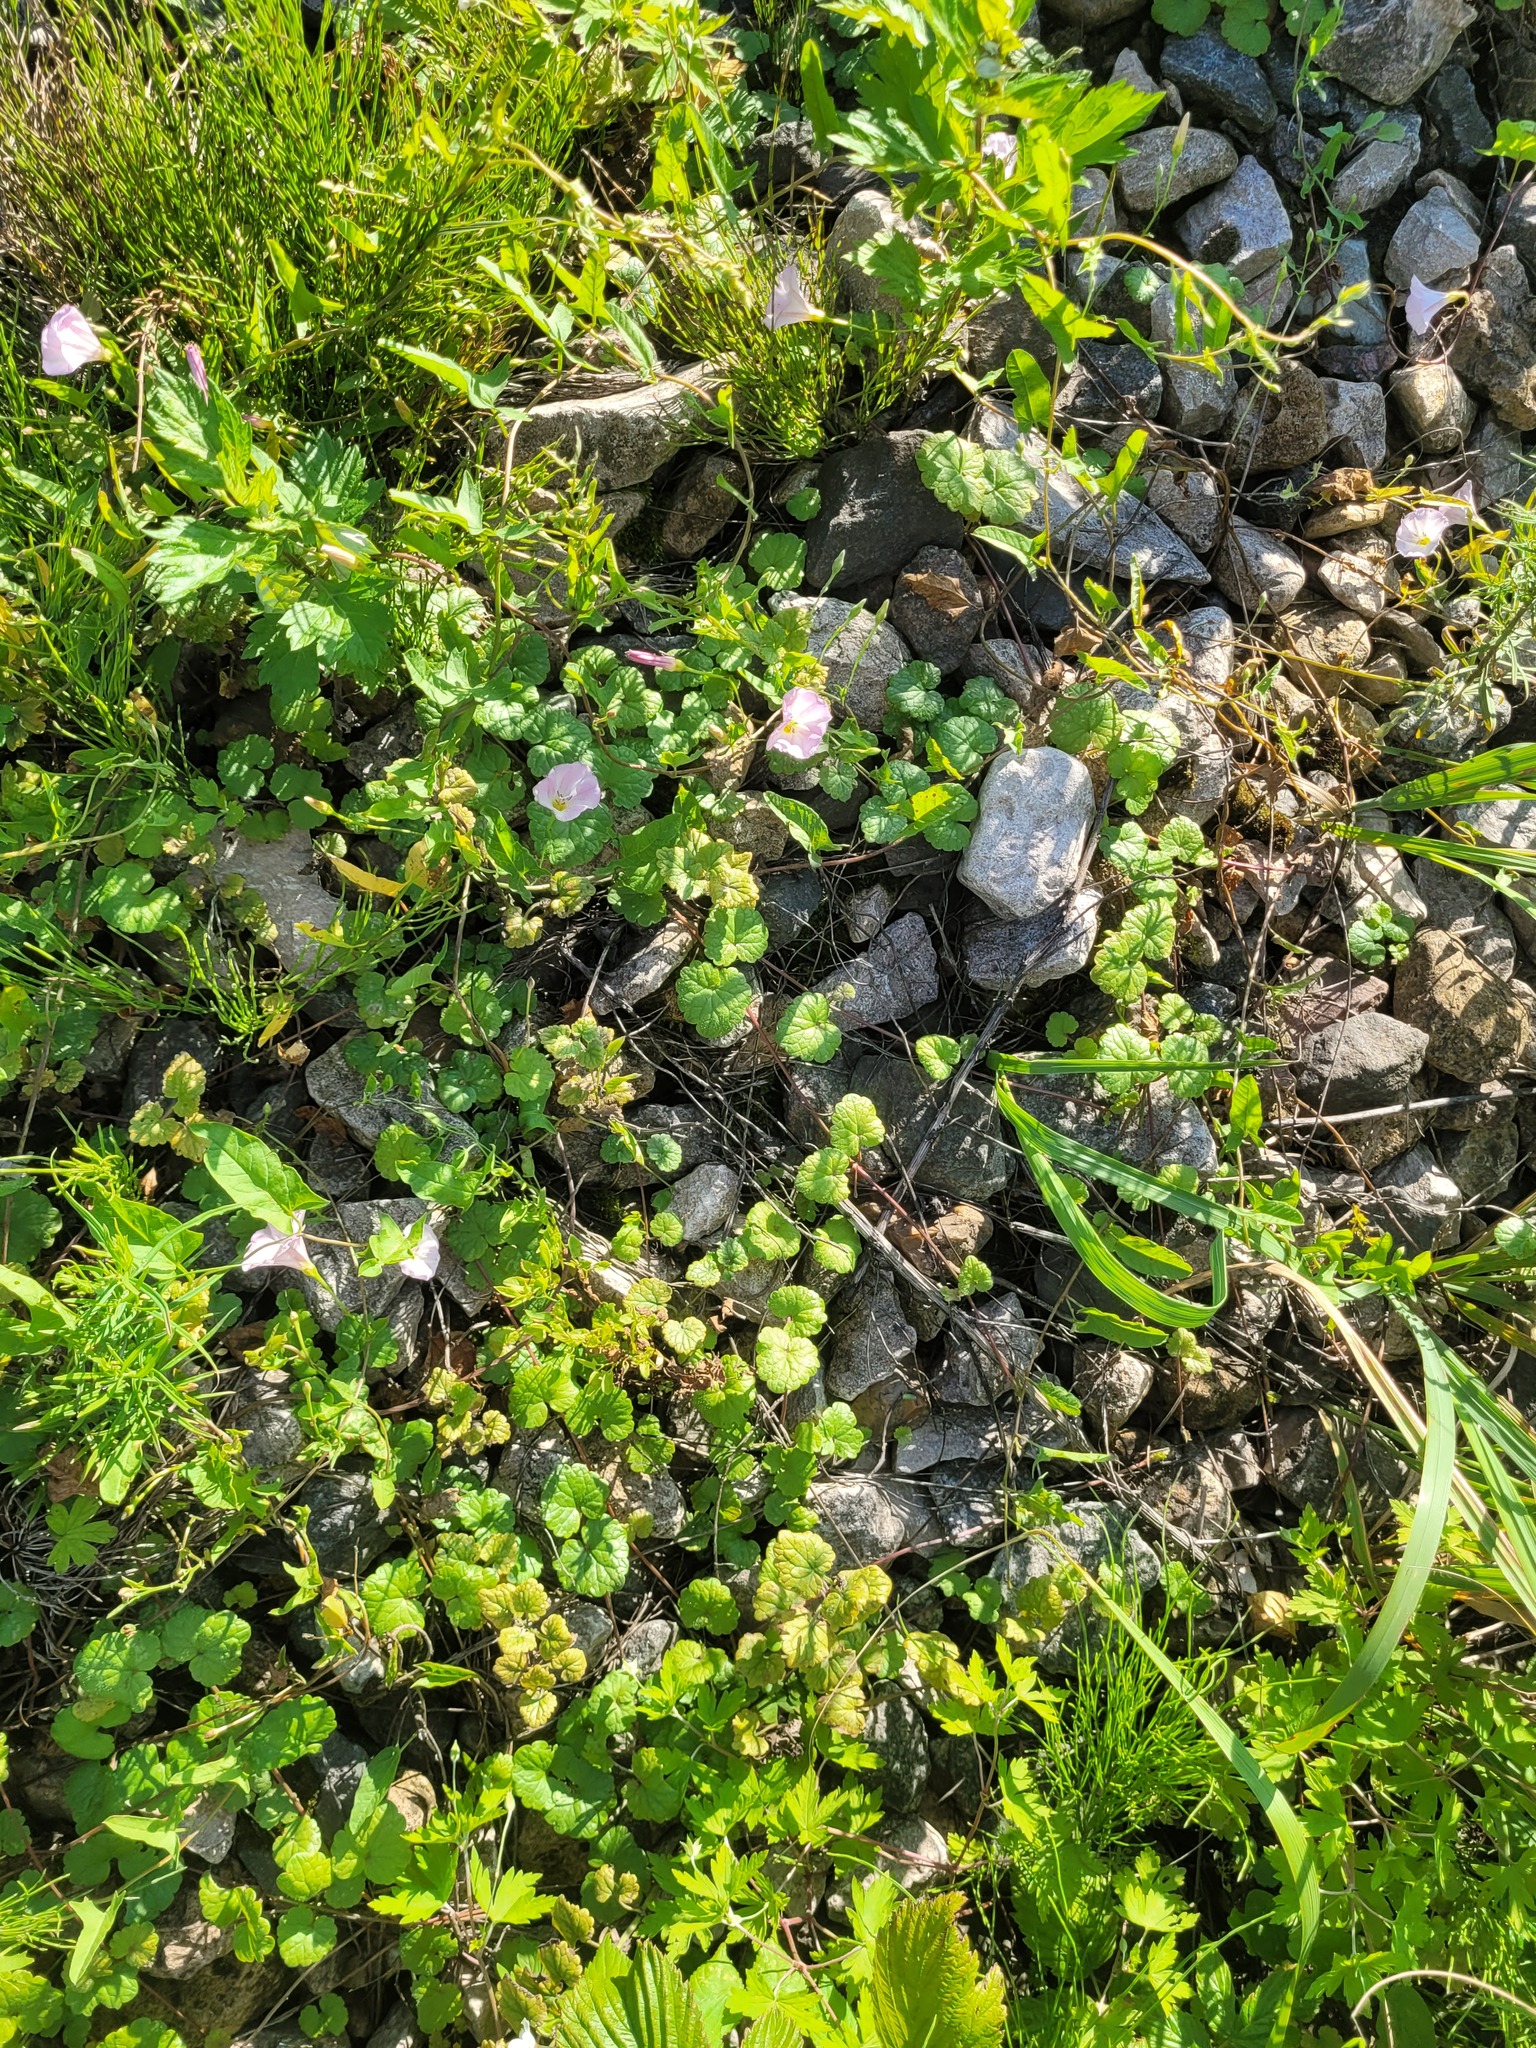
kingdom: Plantae
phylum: Tracheophyta
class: Magnoliopsida
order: Lamiales
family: Lamiaceae
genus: Glechoma
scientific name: Glechoma hederacea
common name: Ground ivy
